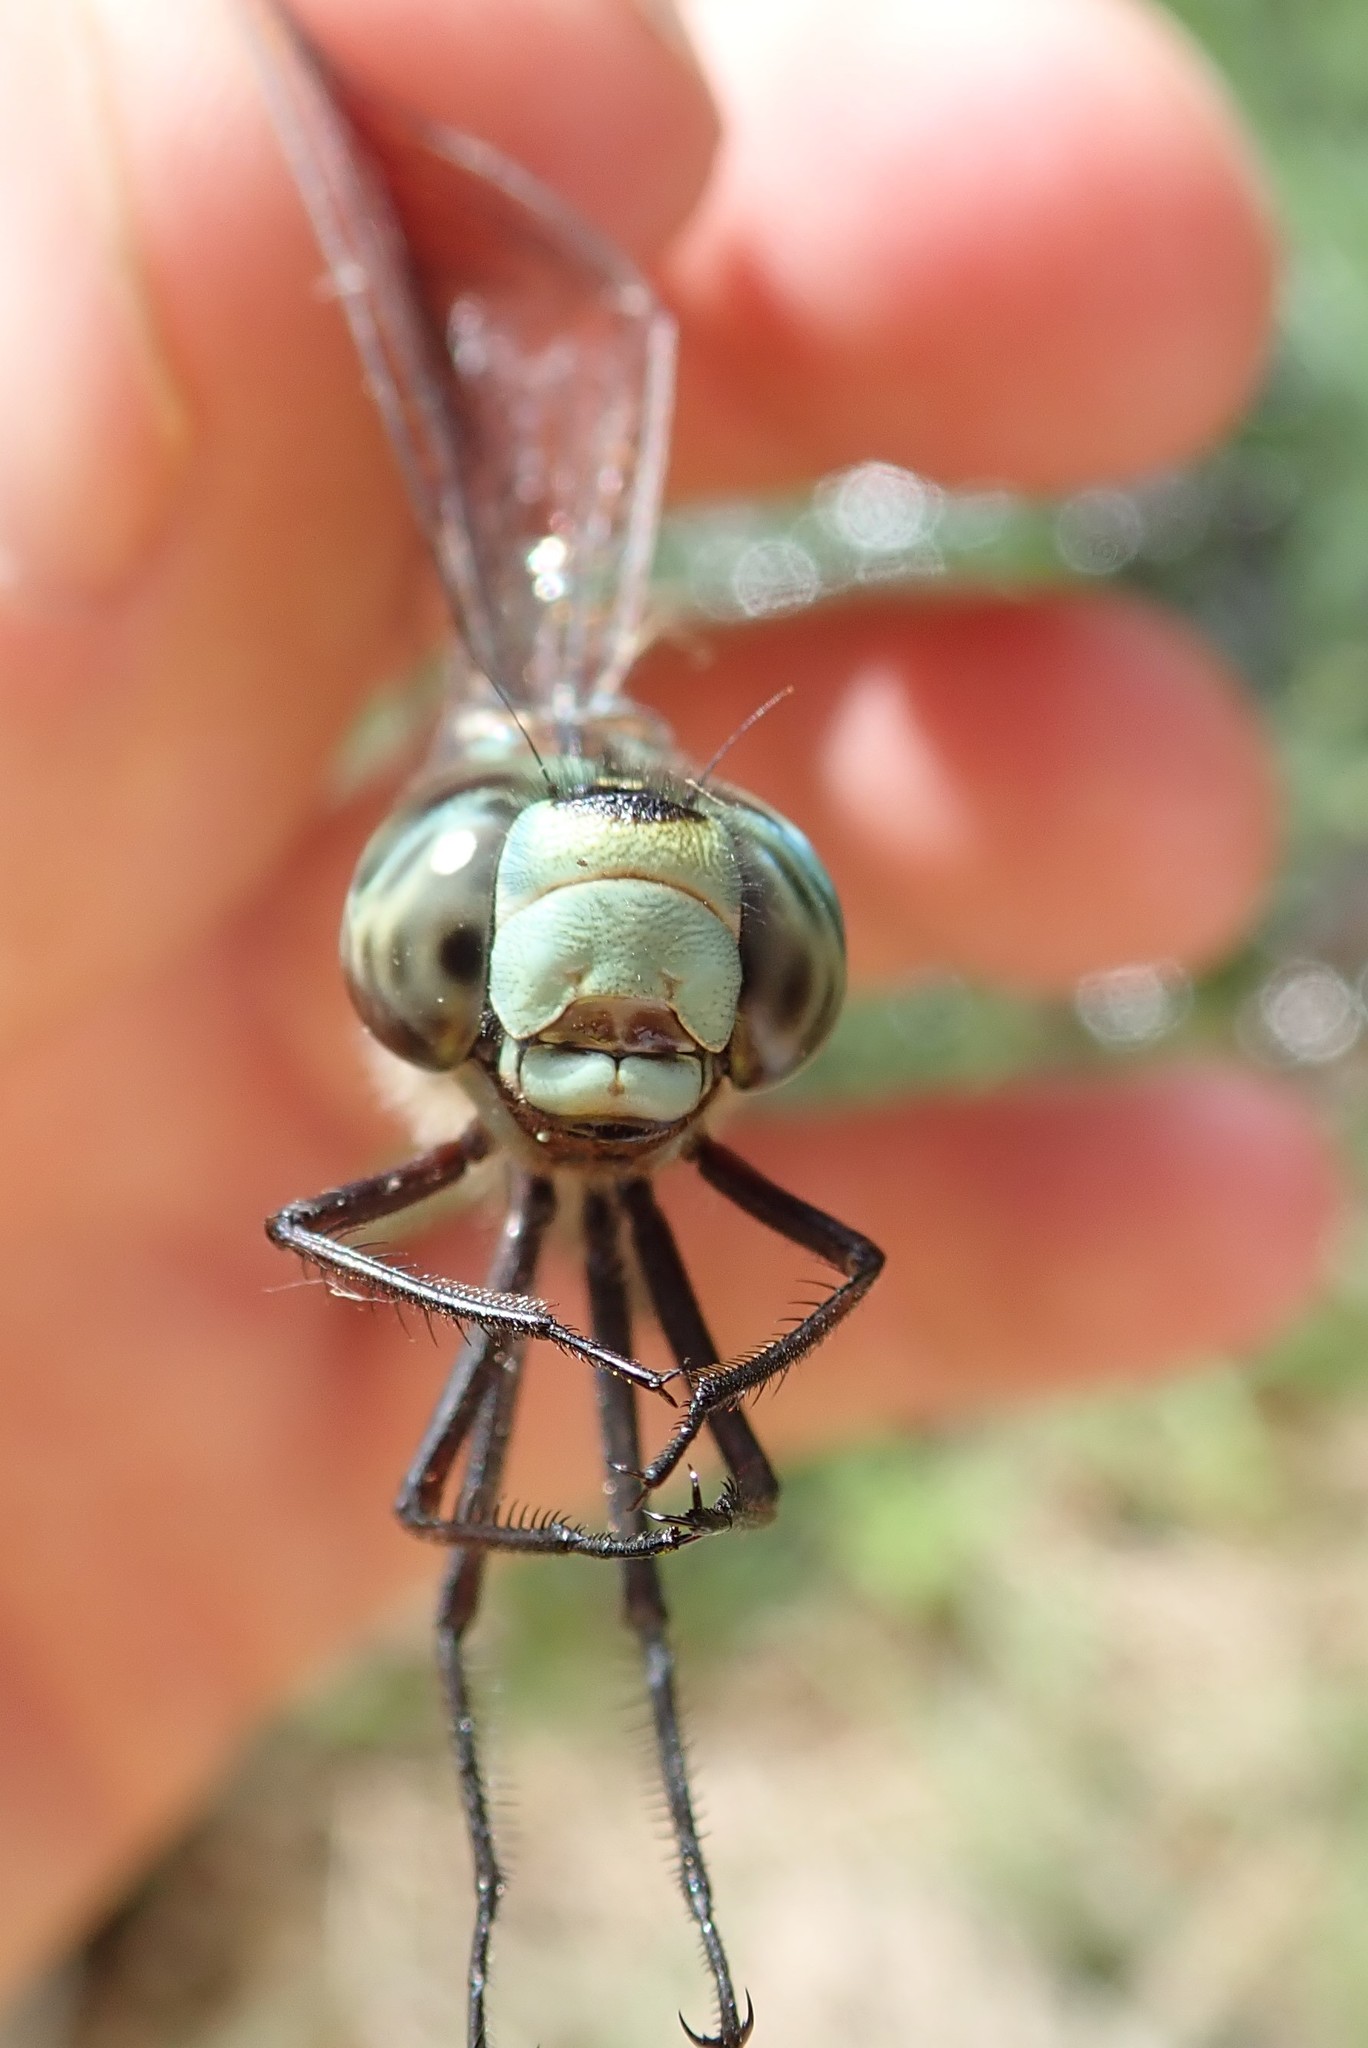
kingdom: Animalia
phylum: Arthropoda
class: Insecta
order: Odonata
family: Aeshnidae
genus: Aeshna
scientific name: Aeshna canadensis
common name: Canada darner
